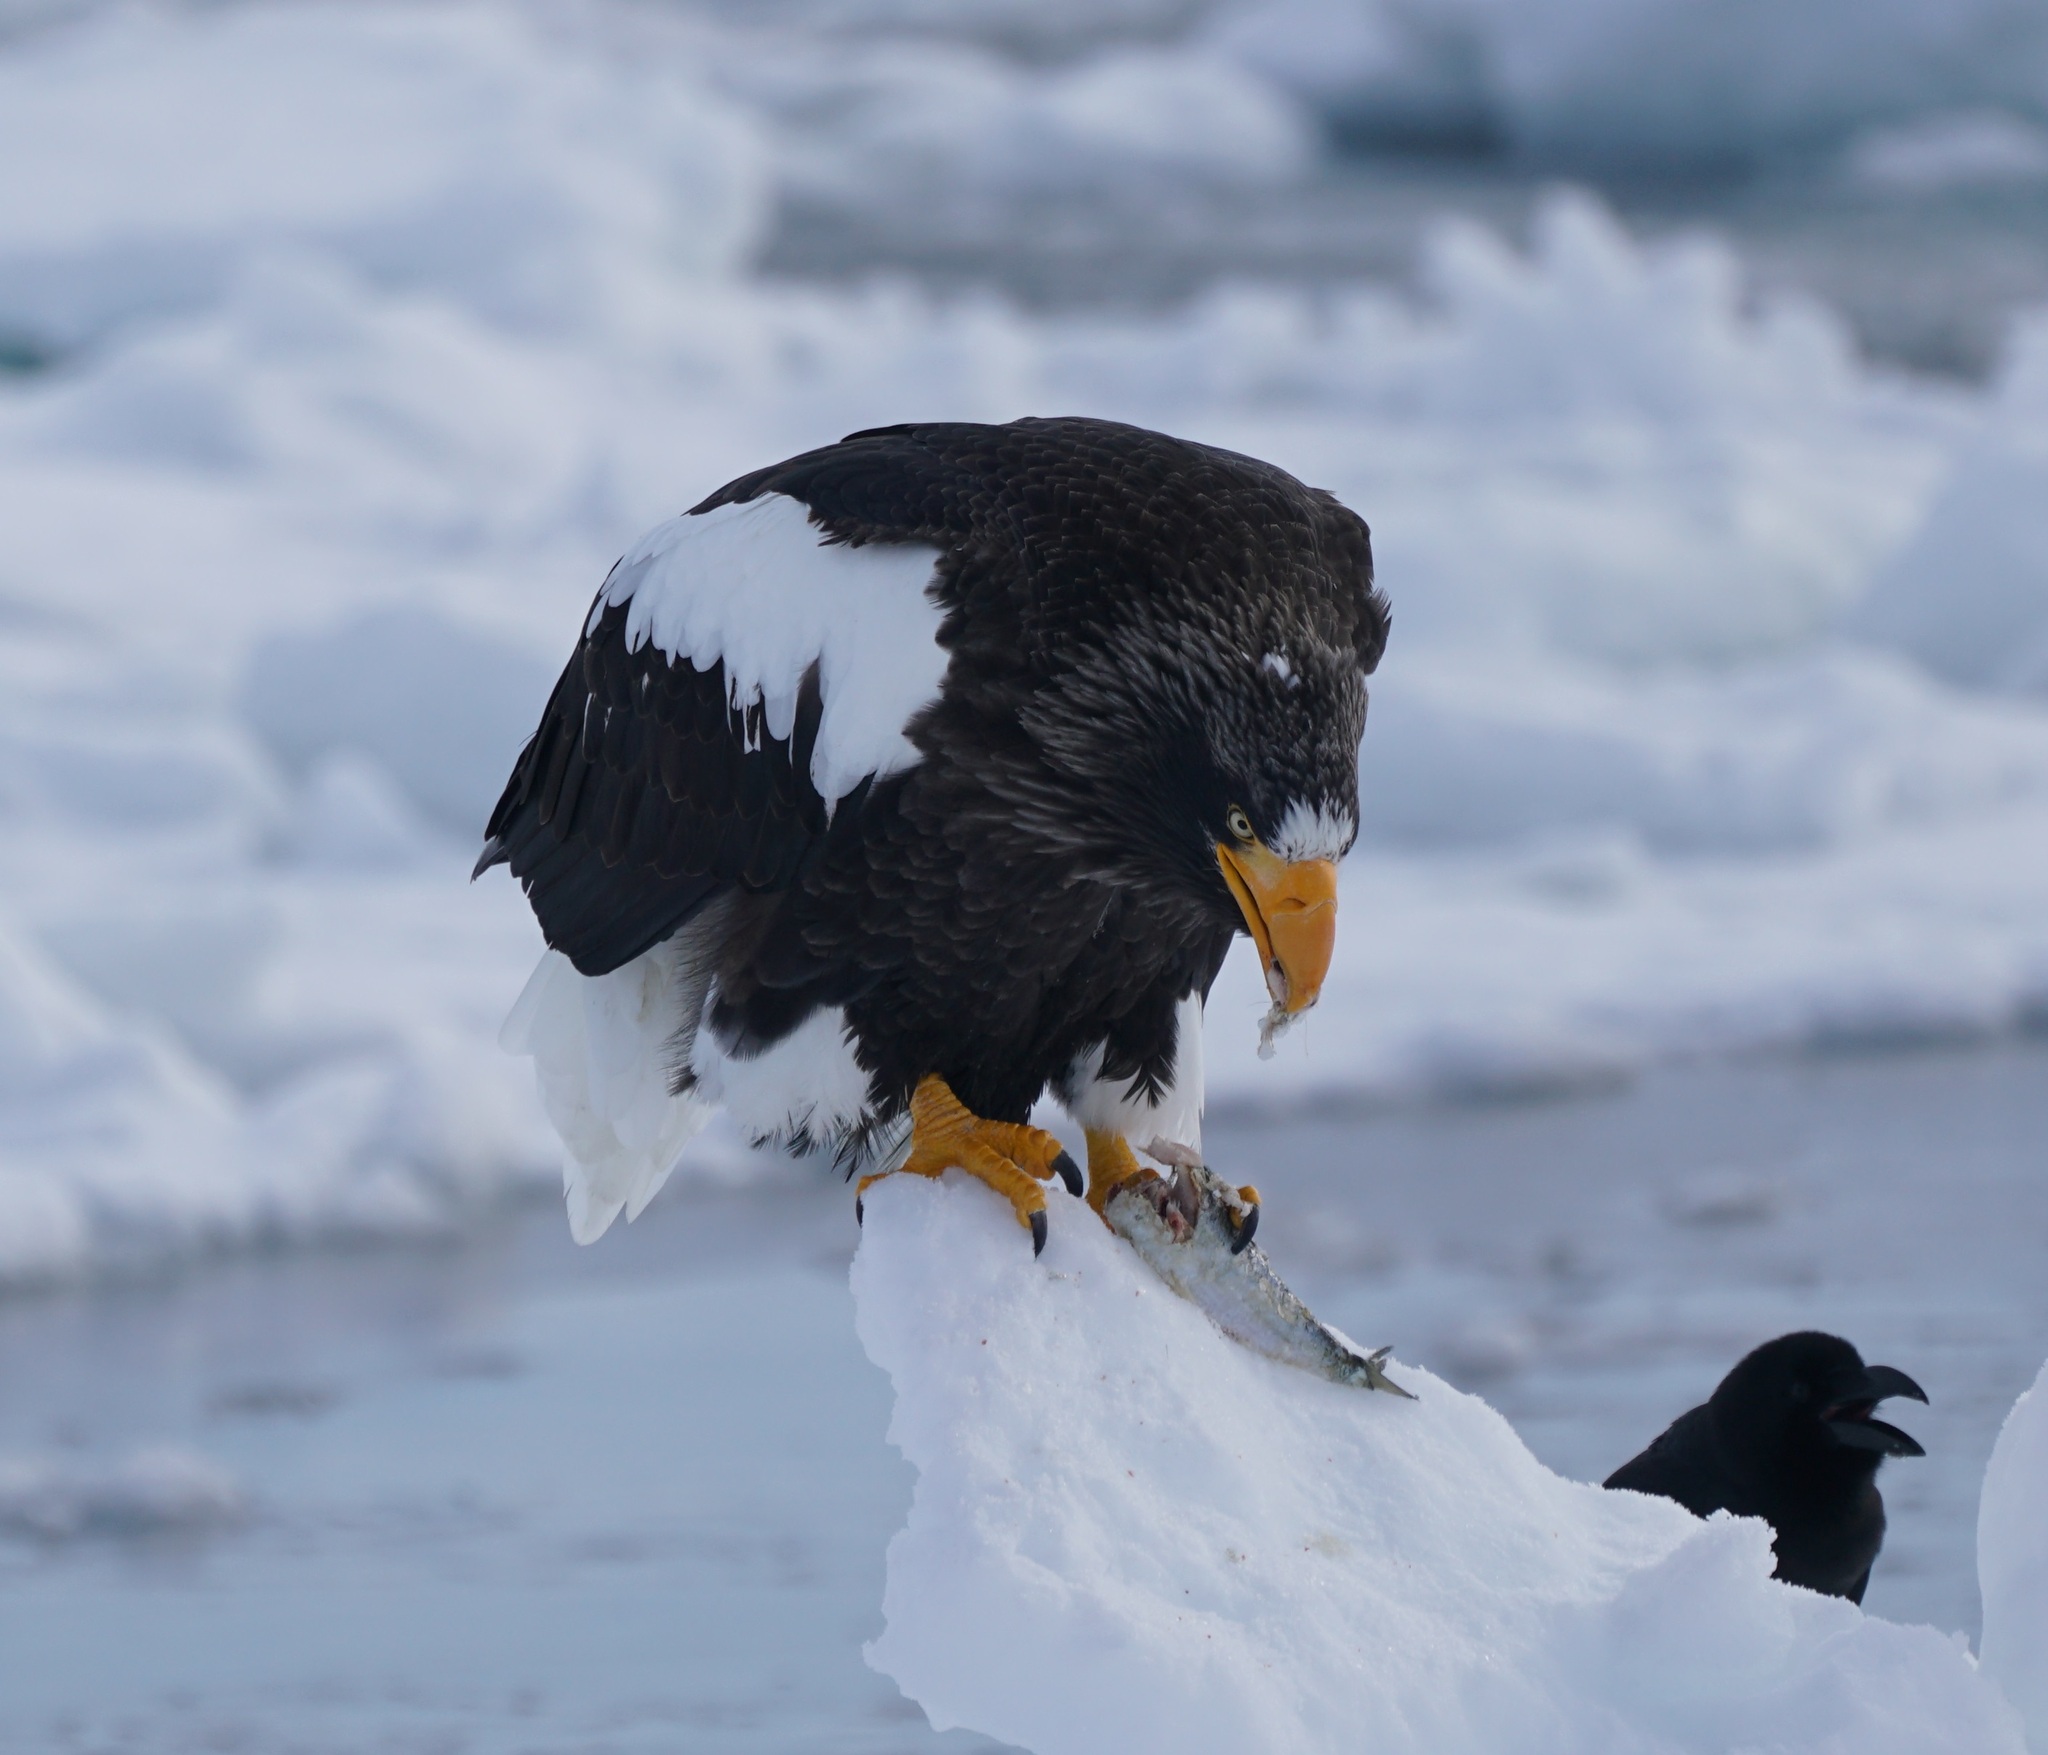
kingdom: Animalia
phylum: Chordata
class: Aves
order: Accipitriformes
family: Accipitridae
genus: Haliaeetus
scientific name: Haliaeetus pelagicus
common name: Steller's sea eagle
